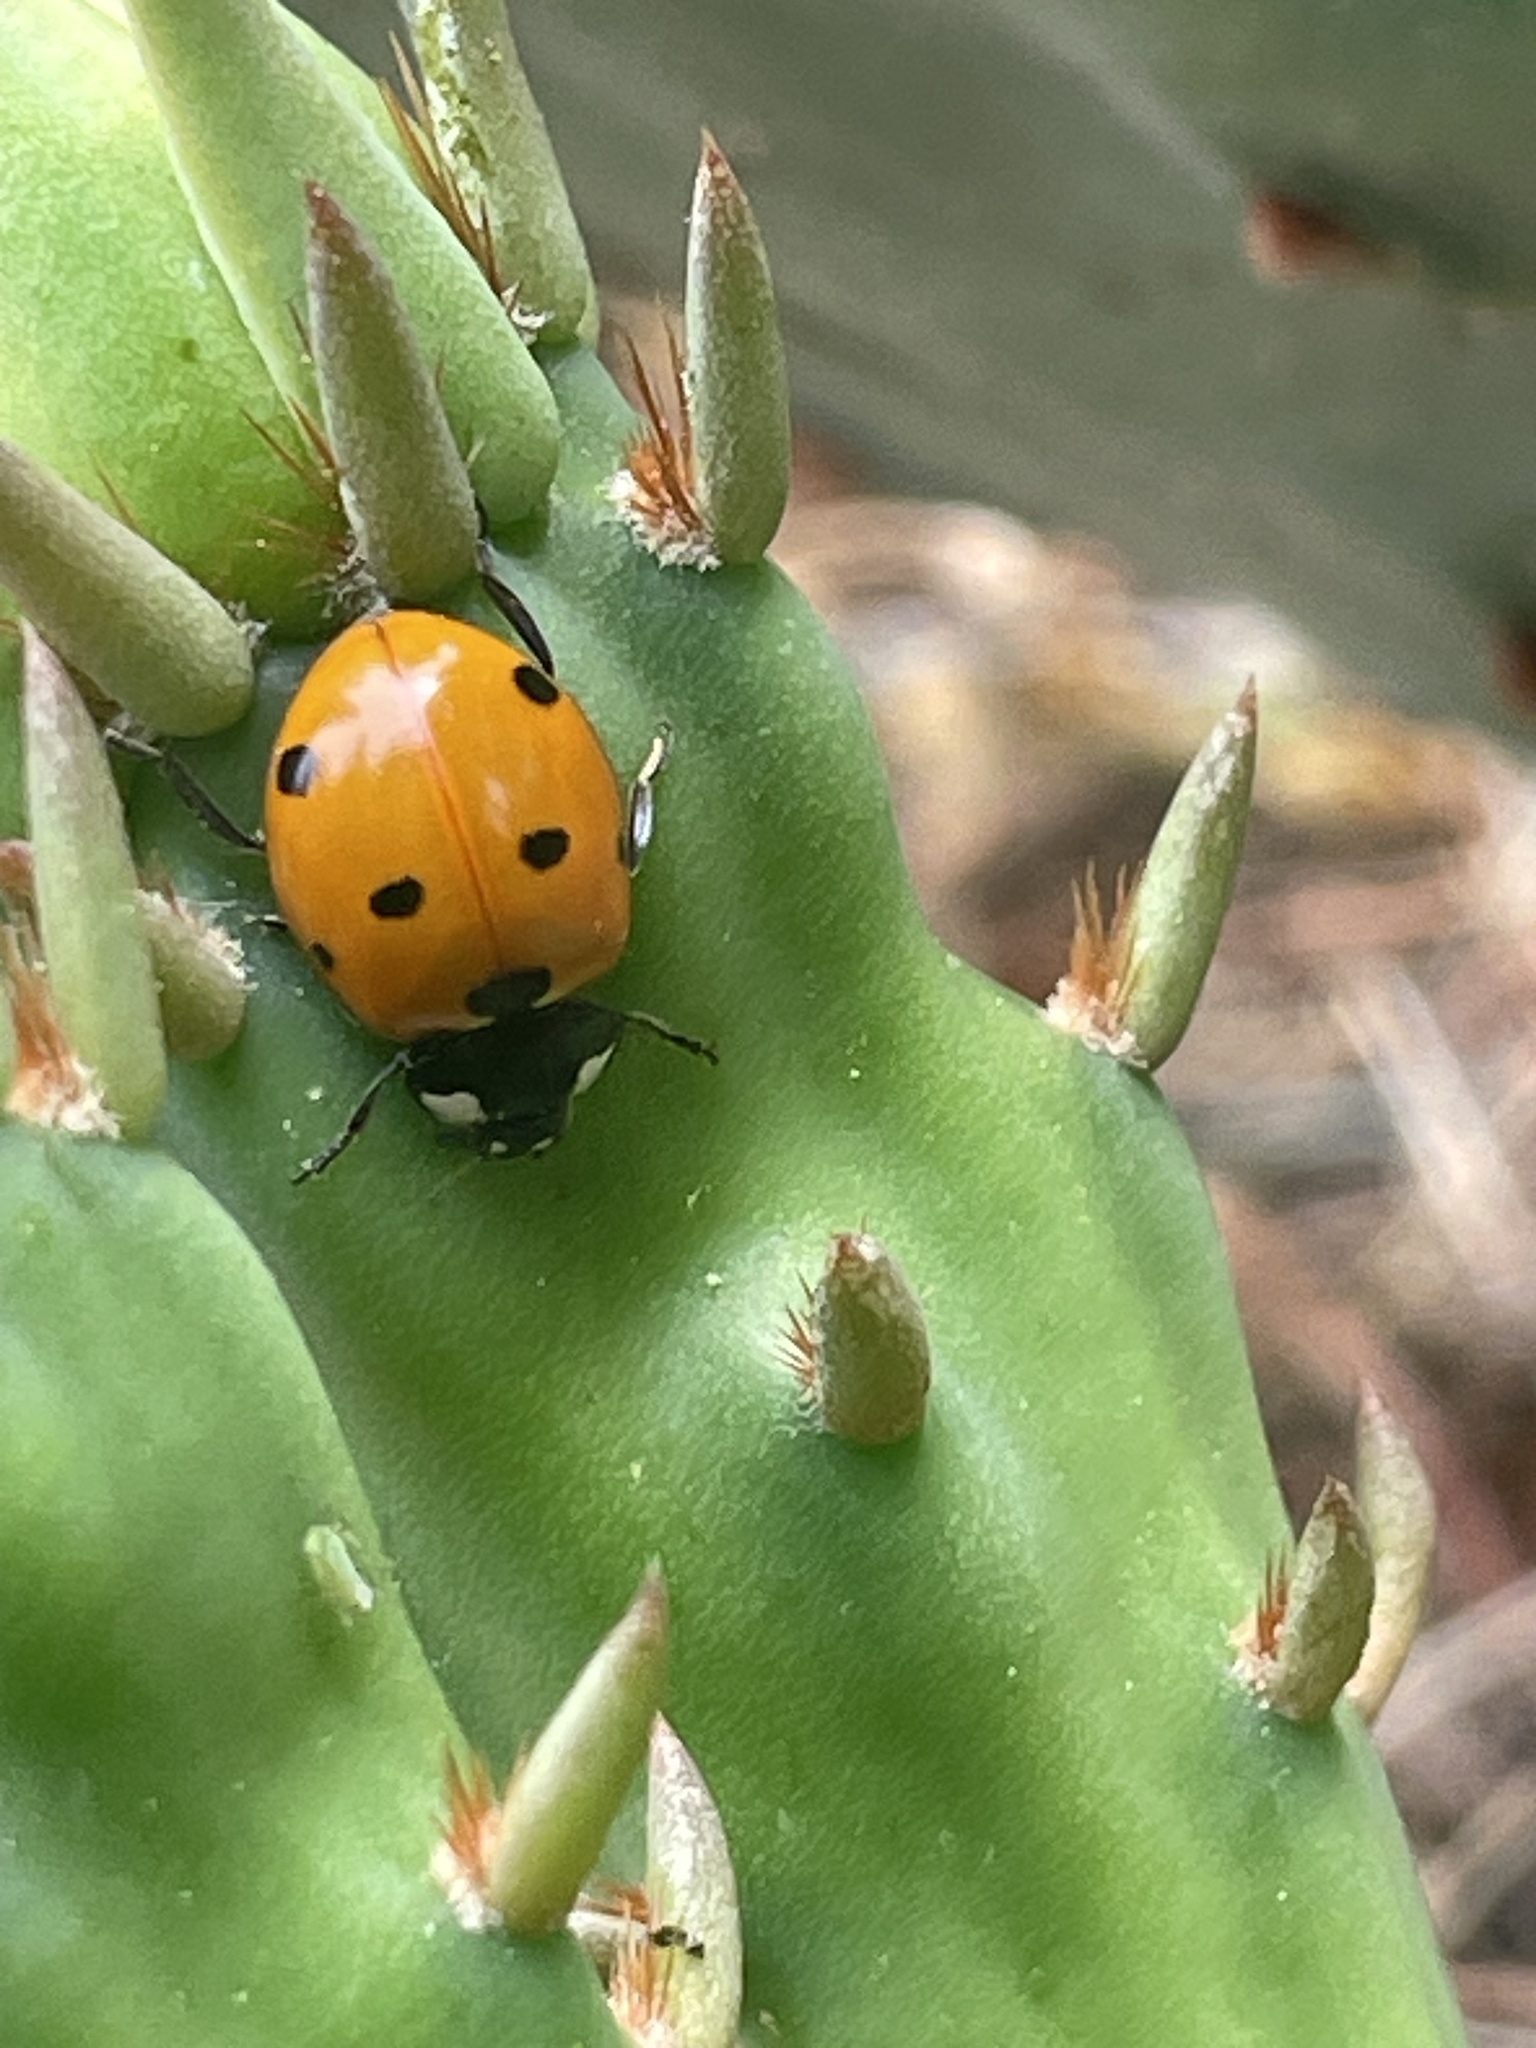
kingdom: Animalia
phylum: Arthropoda
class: Insecta
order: Coleoptera
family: Coccinellidae
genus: Coccinella
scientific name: Coccinella septempunctata
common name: Sevenspotted lady beetle
